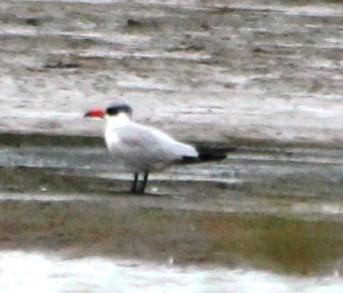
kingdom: Animalia
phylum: Chordata
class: Aves
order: Charadriiformes
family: Laridae
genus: Hydroprogne
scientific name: Hydroprogne caspia
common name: Caspian tern
